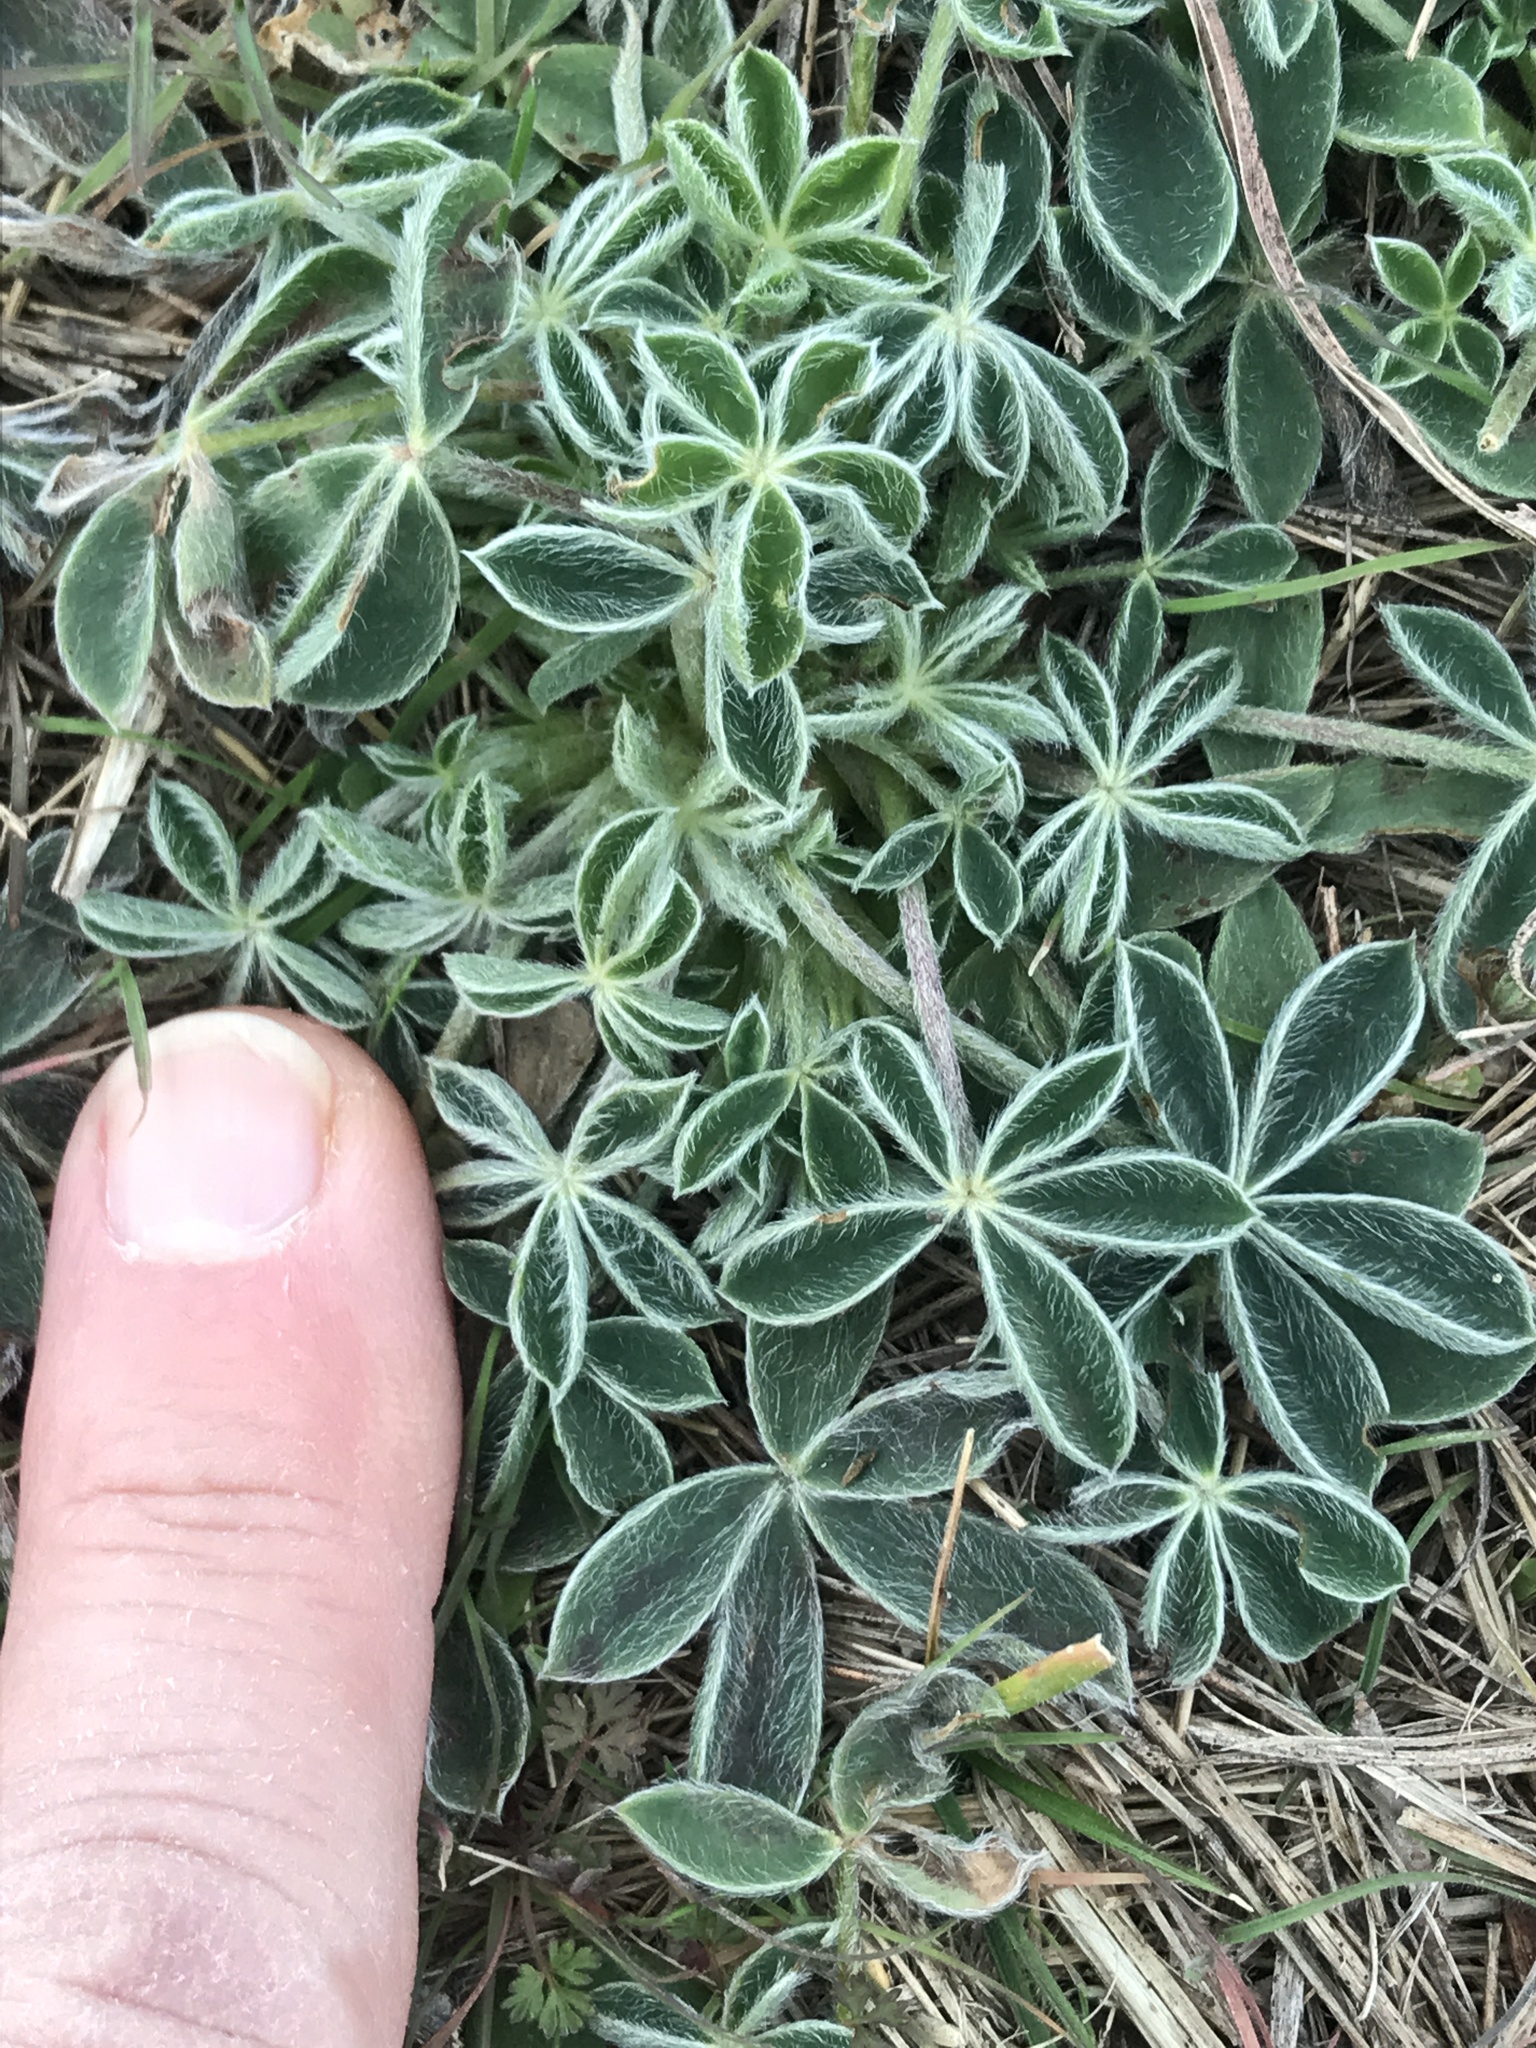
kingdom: Plantae
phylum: Tracheophyta
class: Magnoliopsida
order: Fabales
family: Fabaceae
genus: Lupinus
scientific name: Lupinus texensis
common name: Texas bluebonnet
